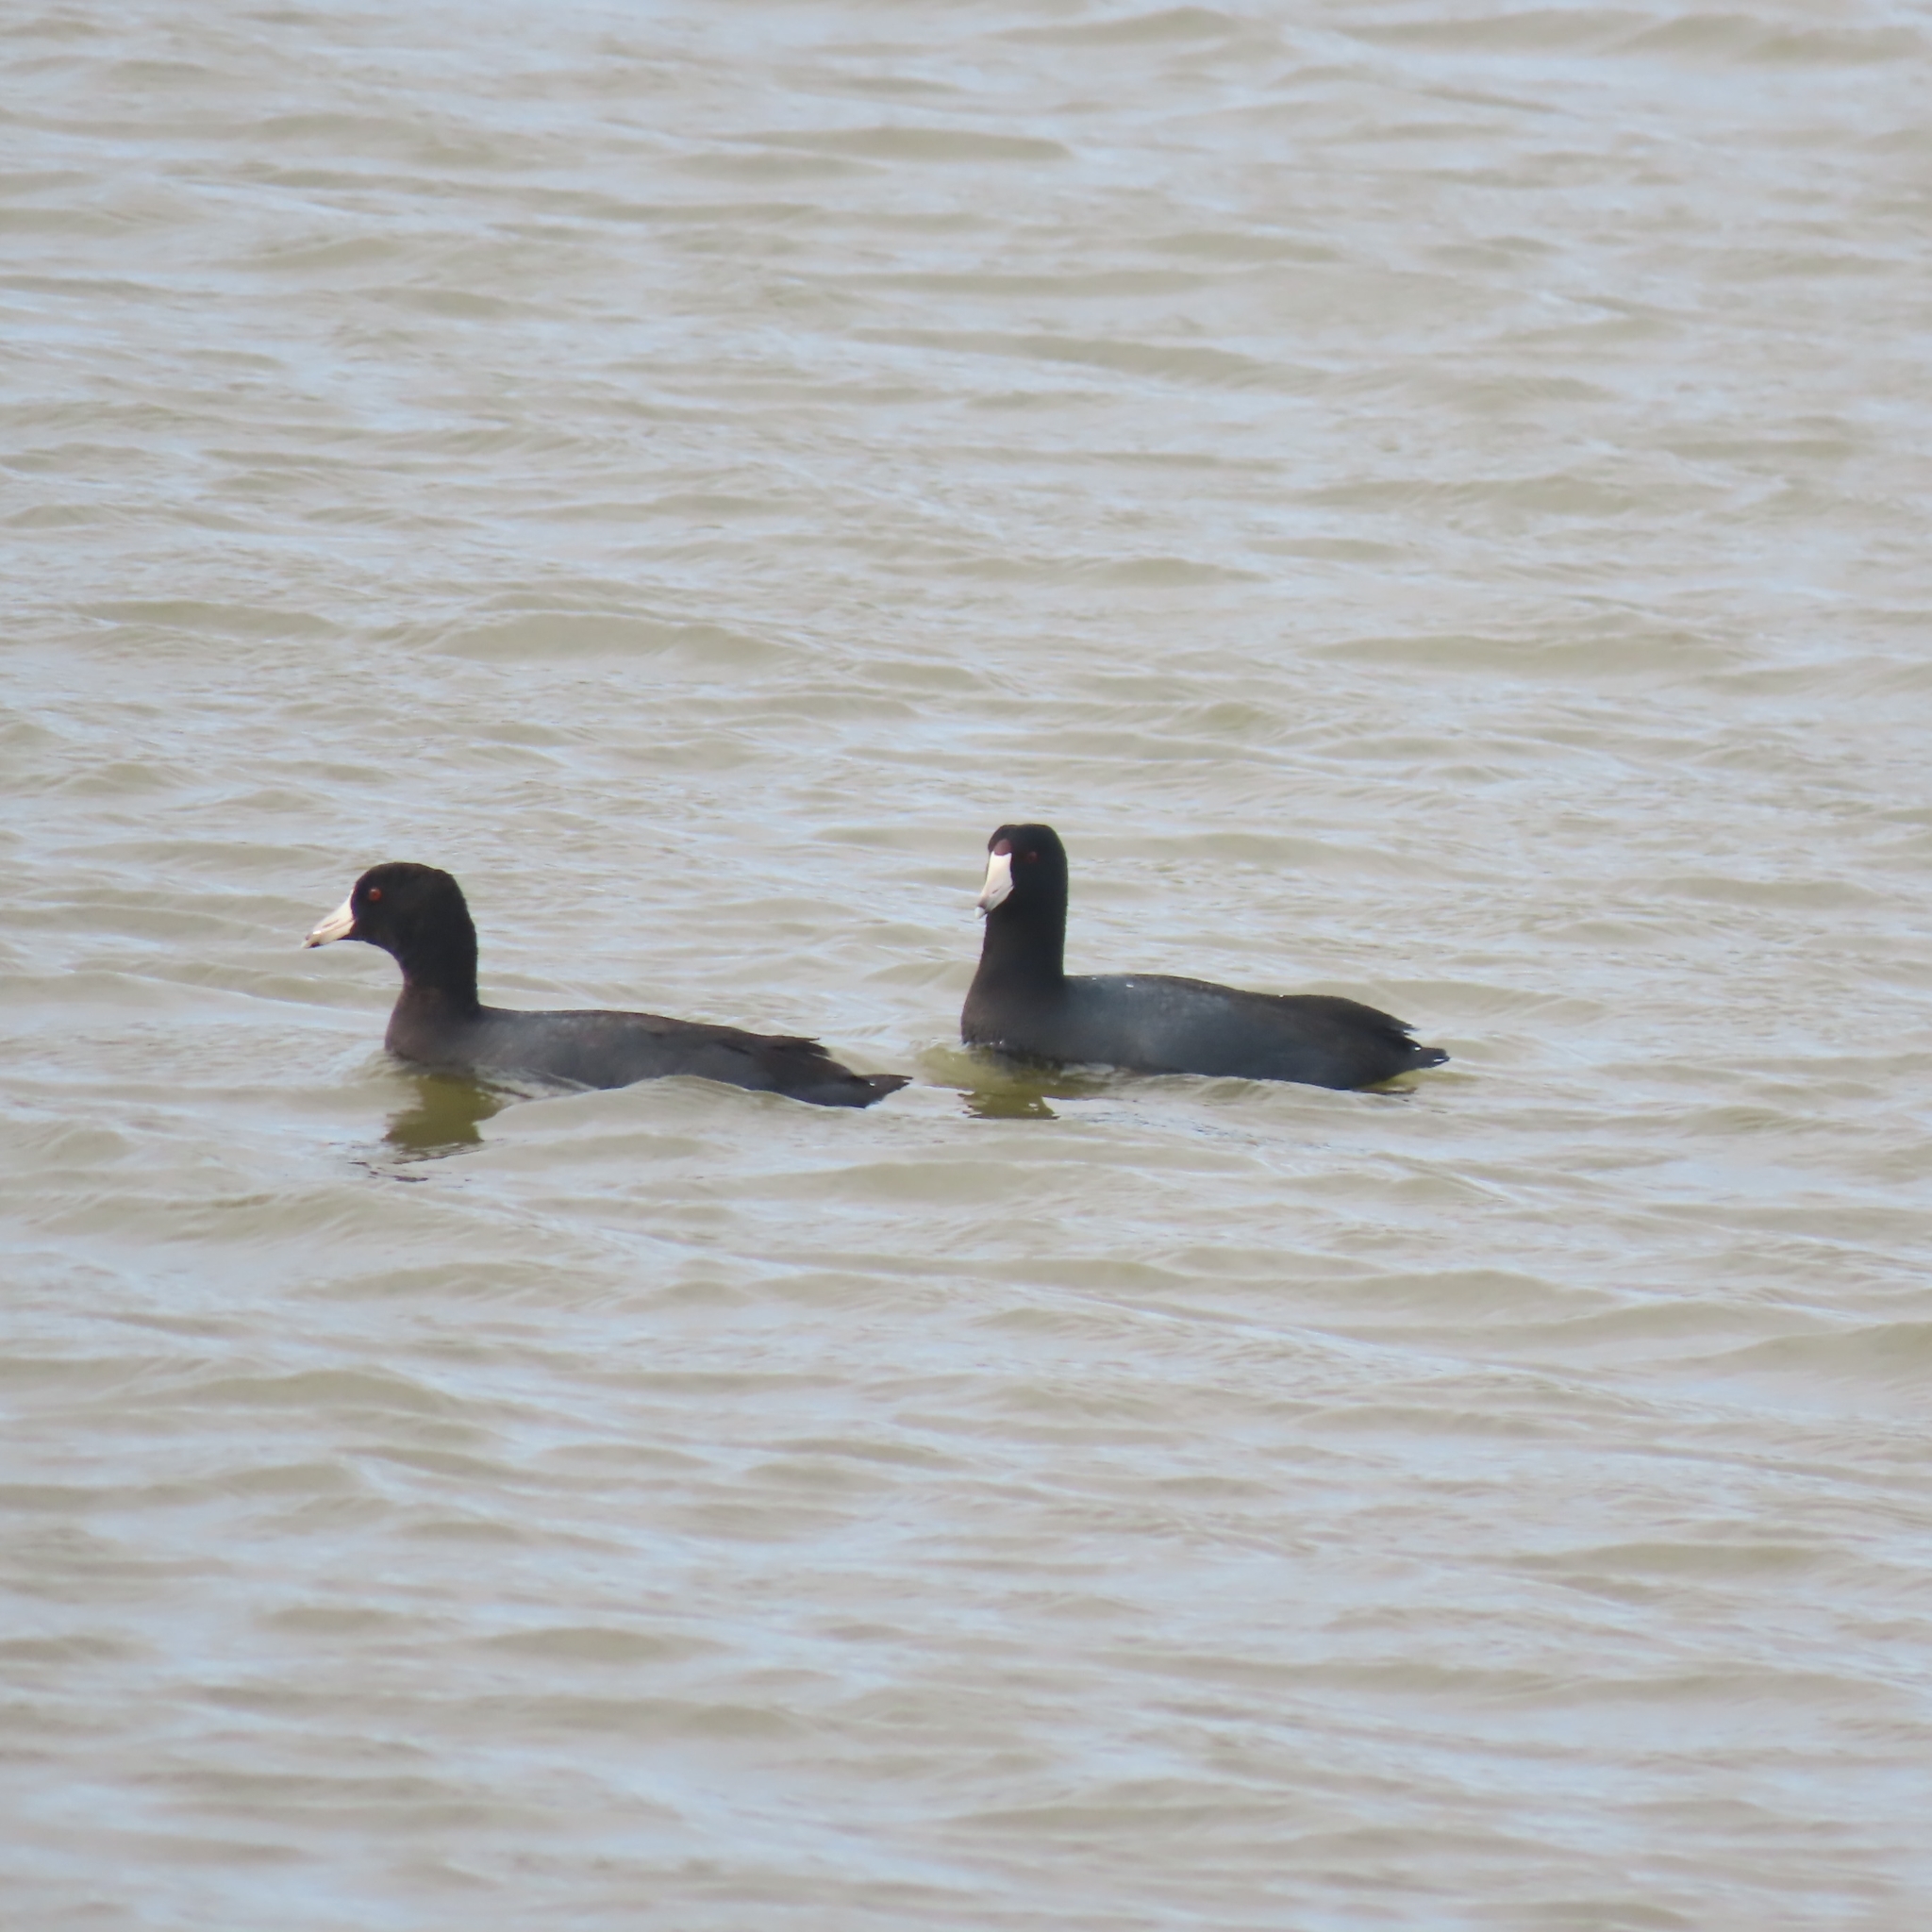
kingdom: Animalia
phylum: Chordata
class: Aves
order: Gruiformes
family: Rallidae
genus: Fulica
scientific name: Fulica americana
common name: American coot
